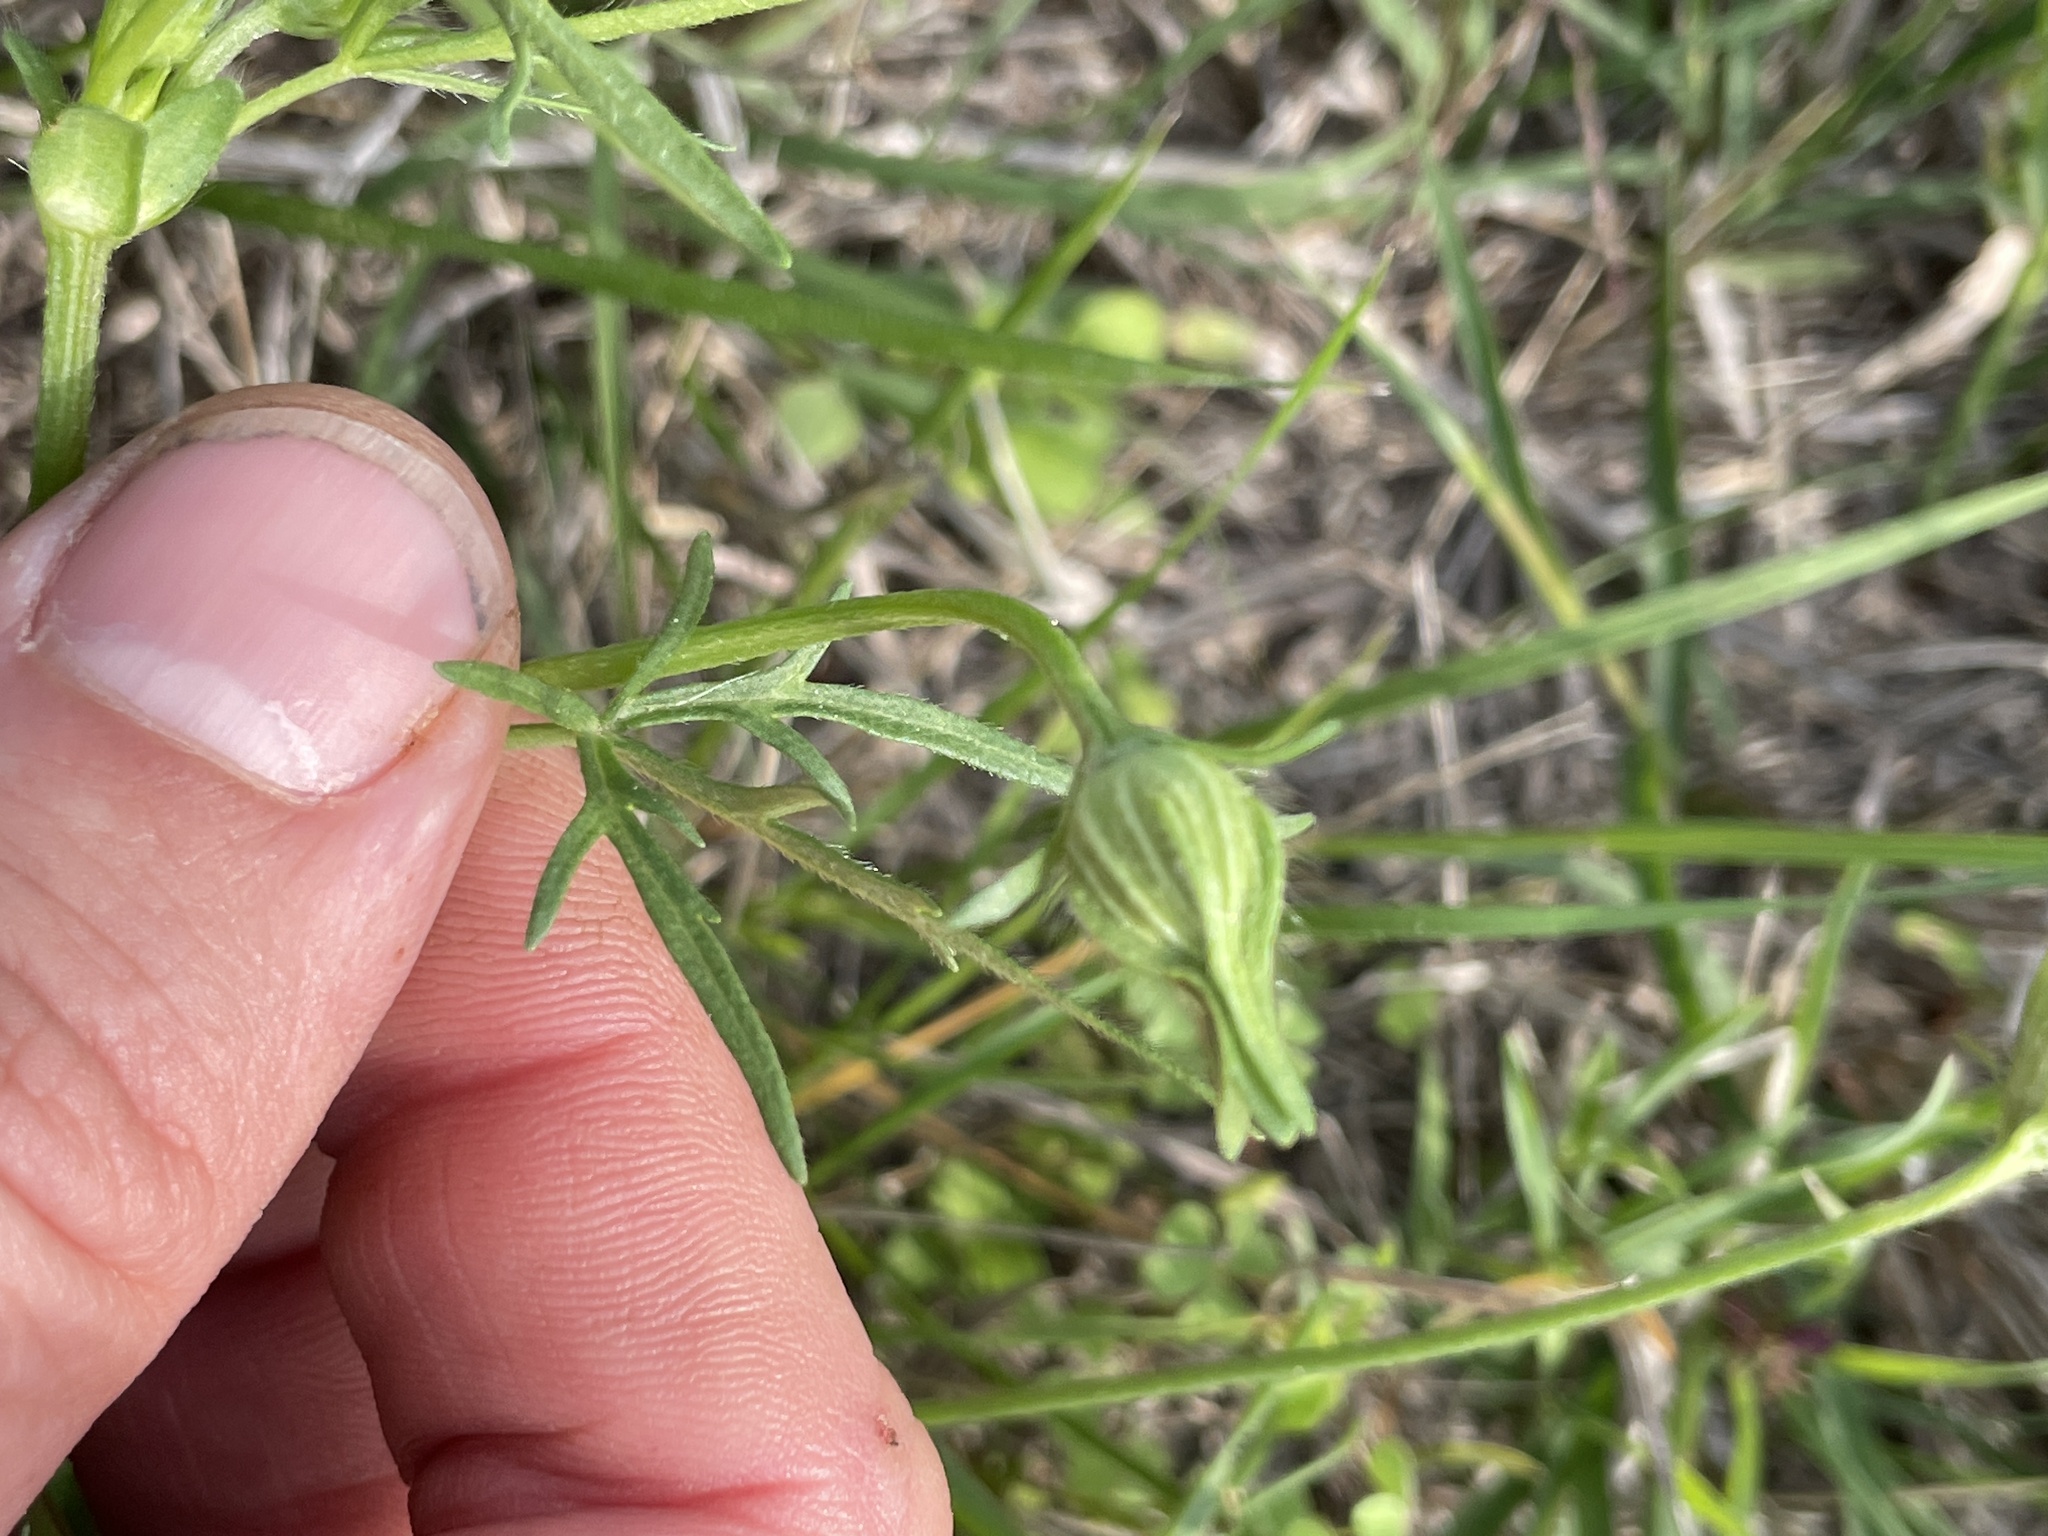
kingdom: Plantae
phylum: Tracheophyta
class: Magnoliopsida
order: Malvales
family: Malvaceae
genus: Callirhoe
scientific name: Callirhoe involucrata
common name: Purple poppy-mallow
